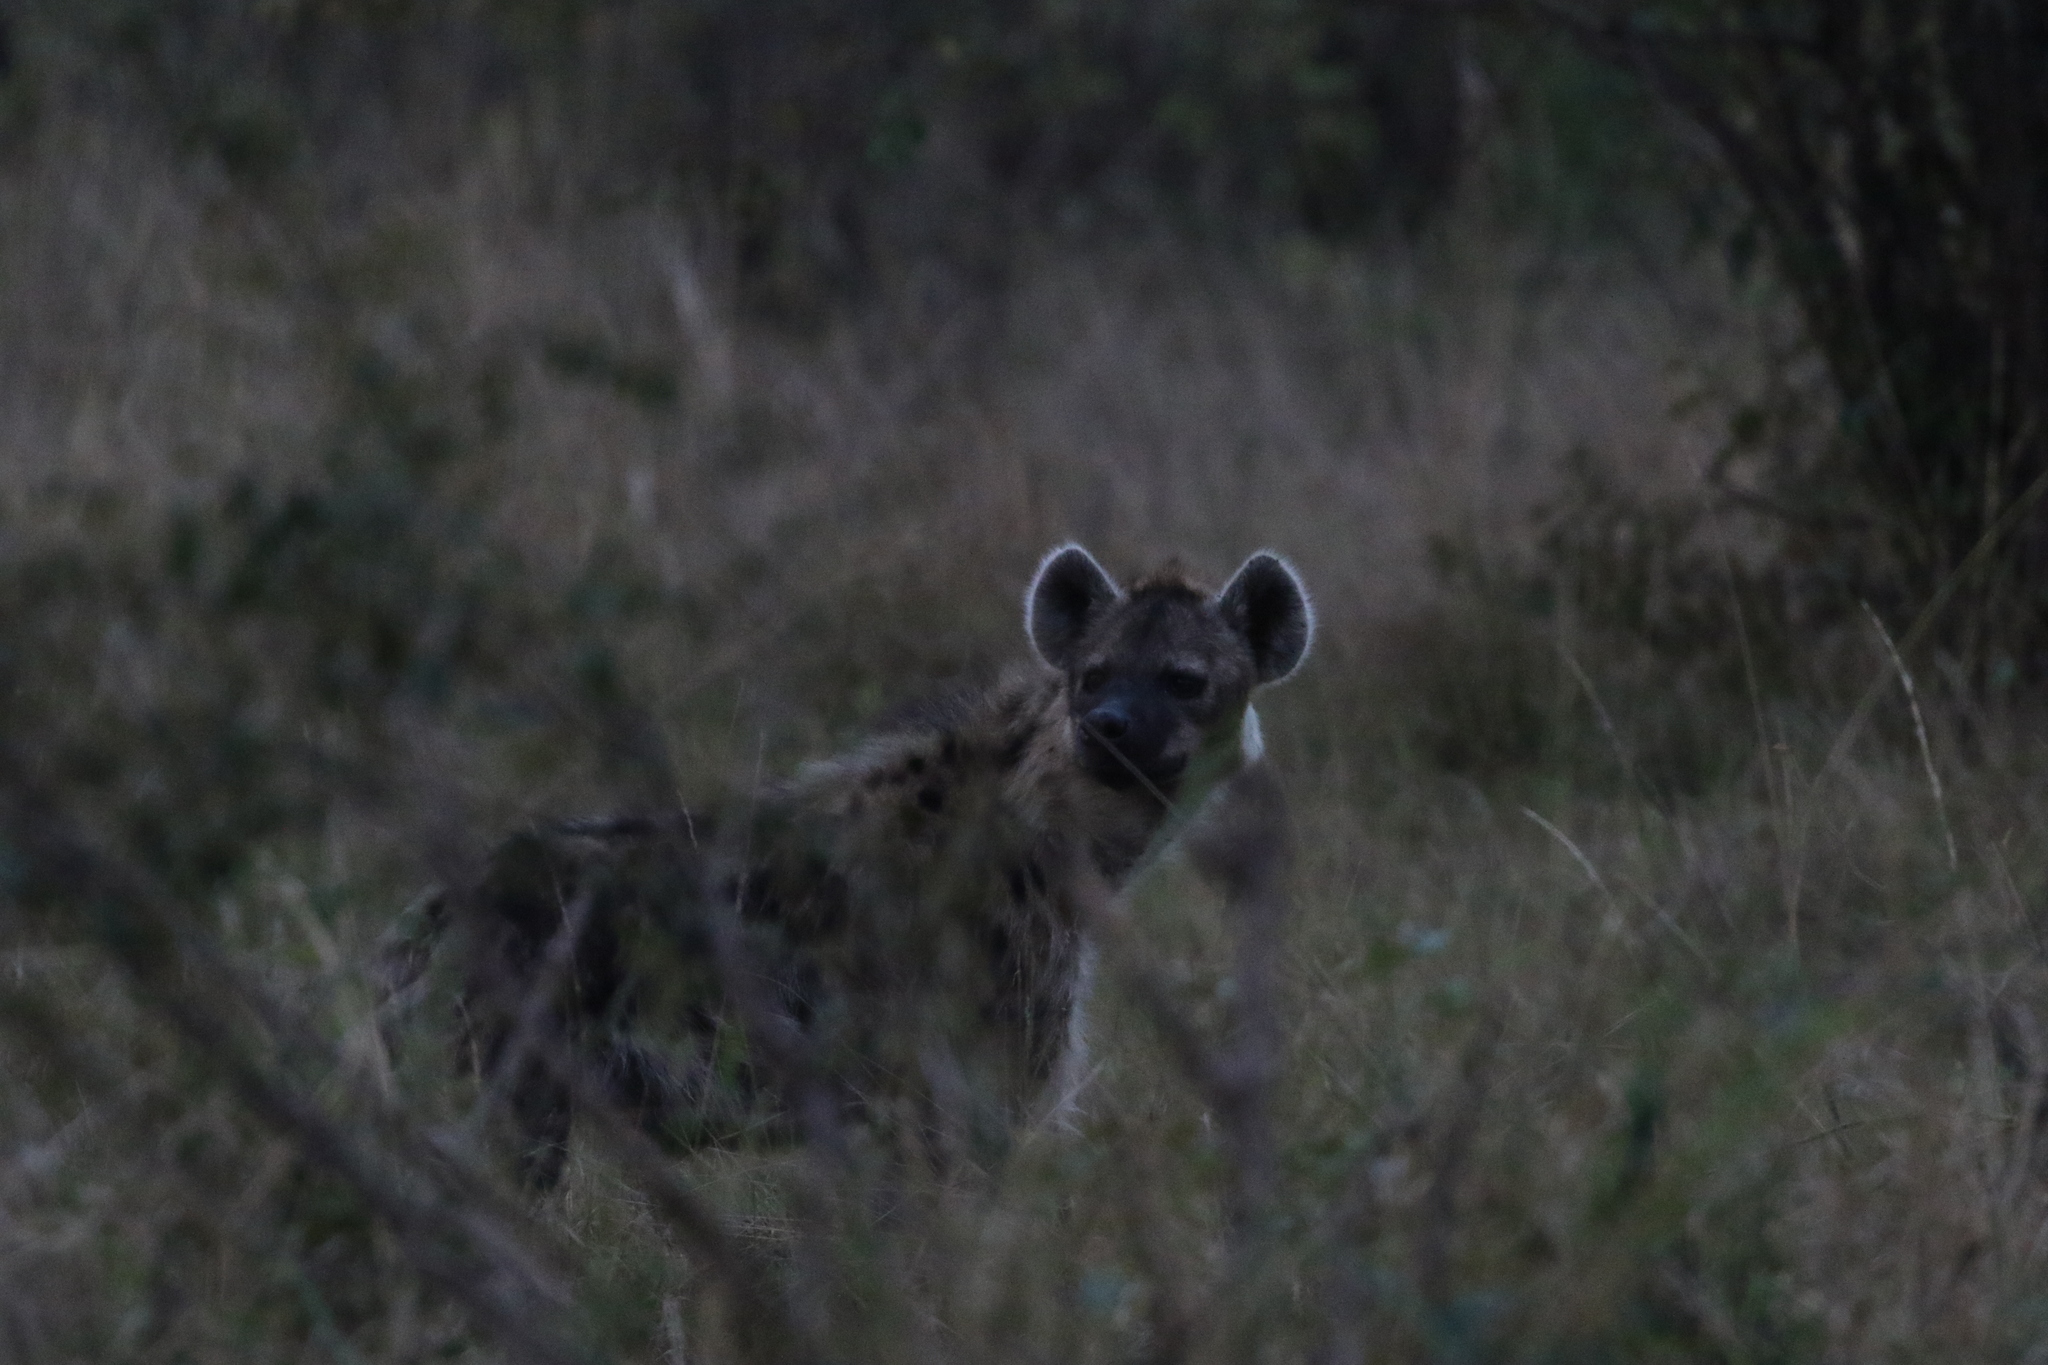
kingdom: Animalia
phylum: Chordata
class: Mammalia
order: Carnivora
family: Hyaenidae
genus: Crocuta
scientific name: Crocuta crocuta
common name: Spotted hyaena
